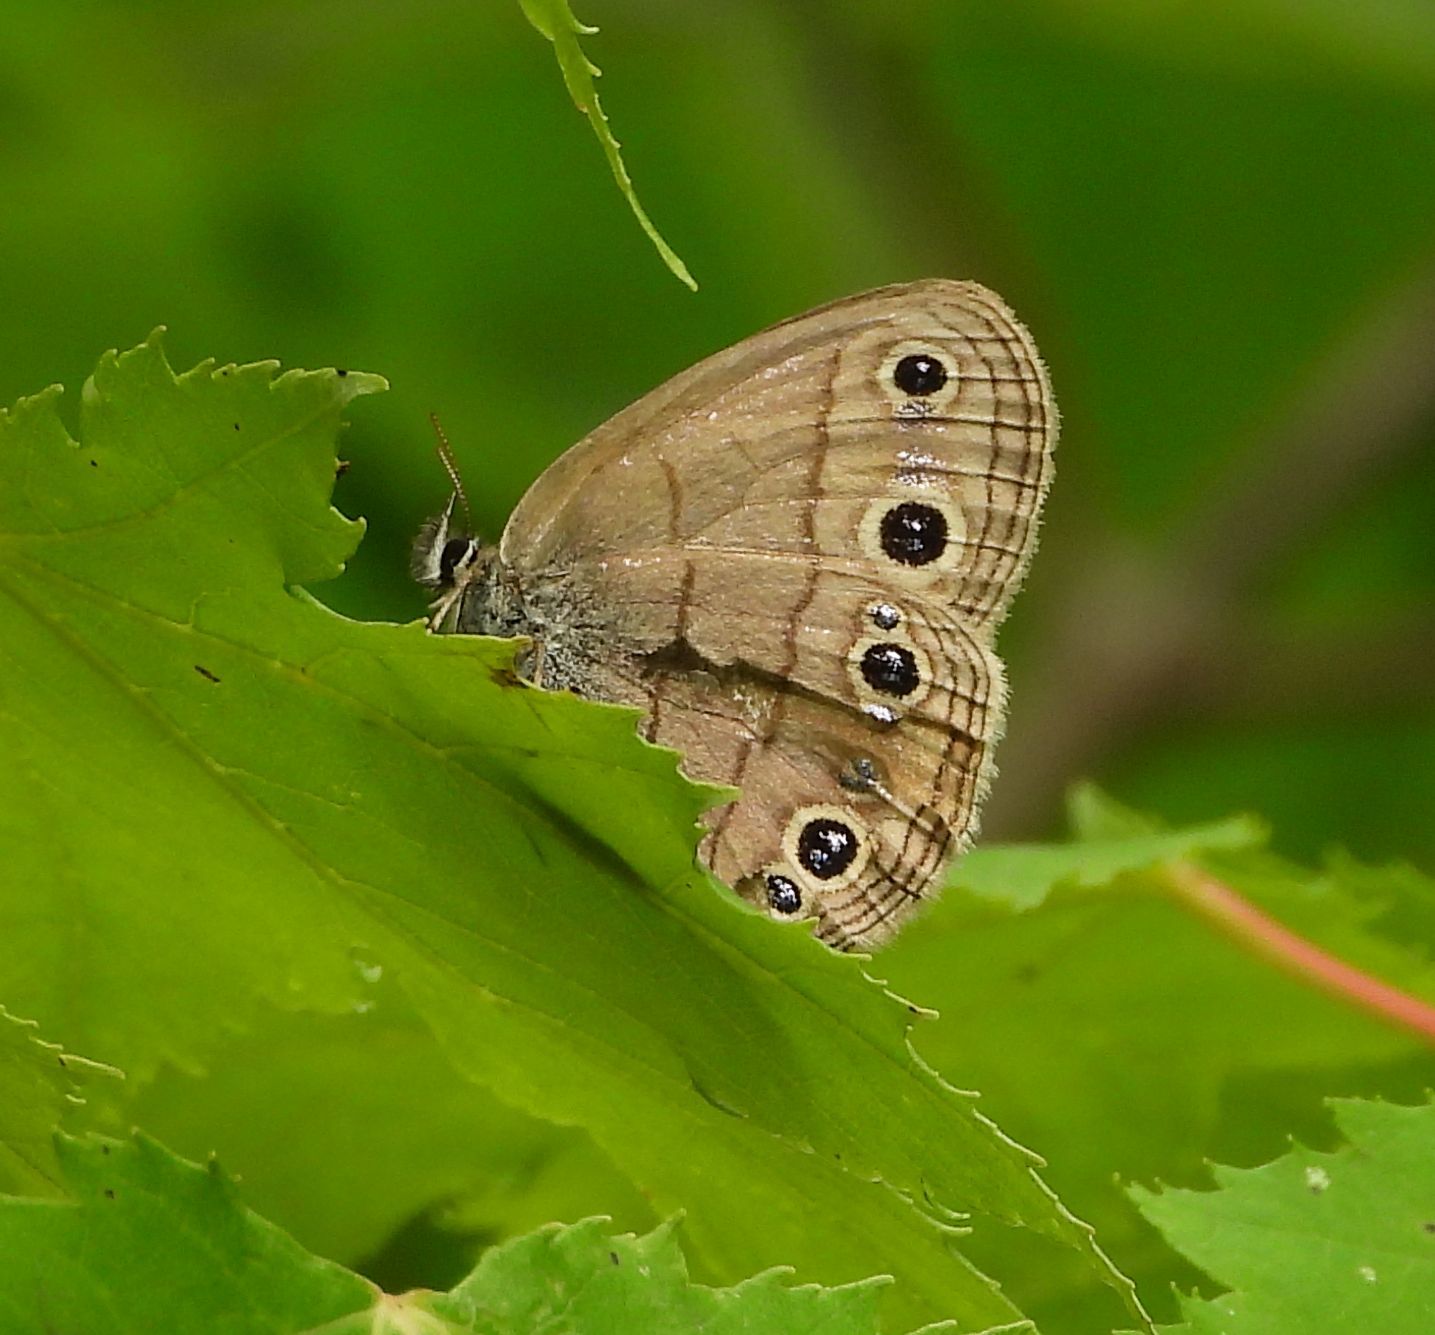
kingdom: Animalia
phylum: Arthropoda
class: Insecta
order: Lepidoptera
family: Nymphalidae
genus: Euptychia
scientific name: Euptychia cymela
